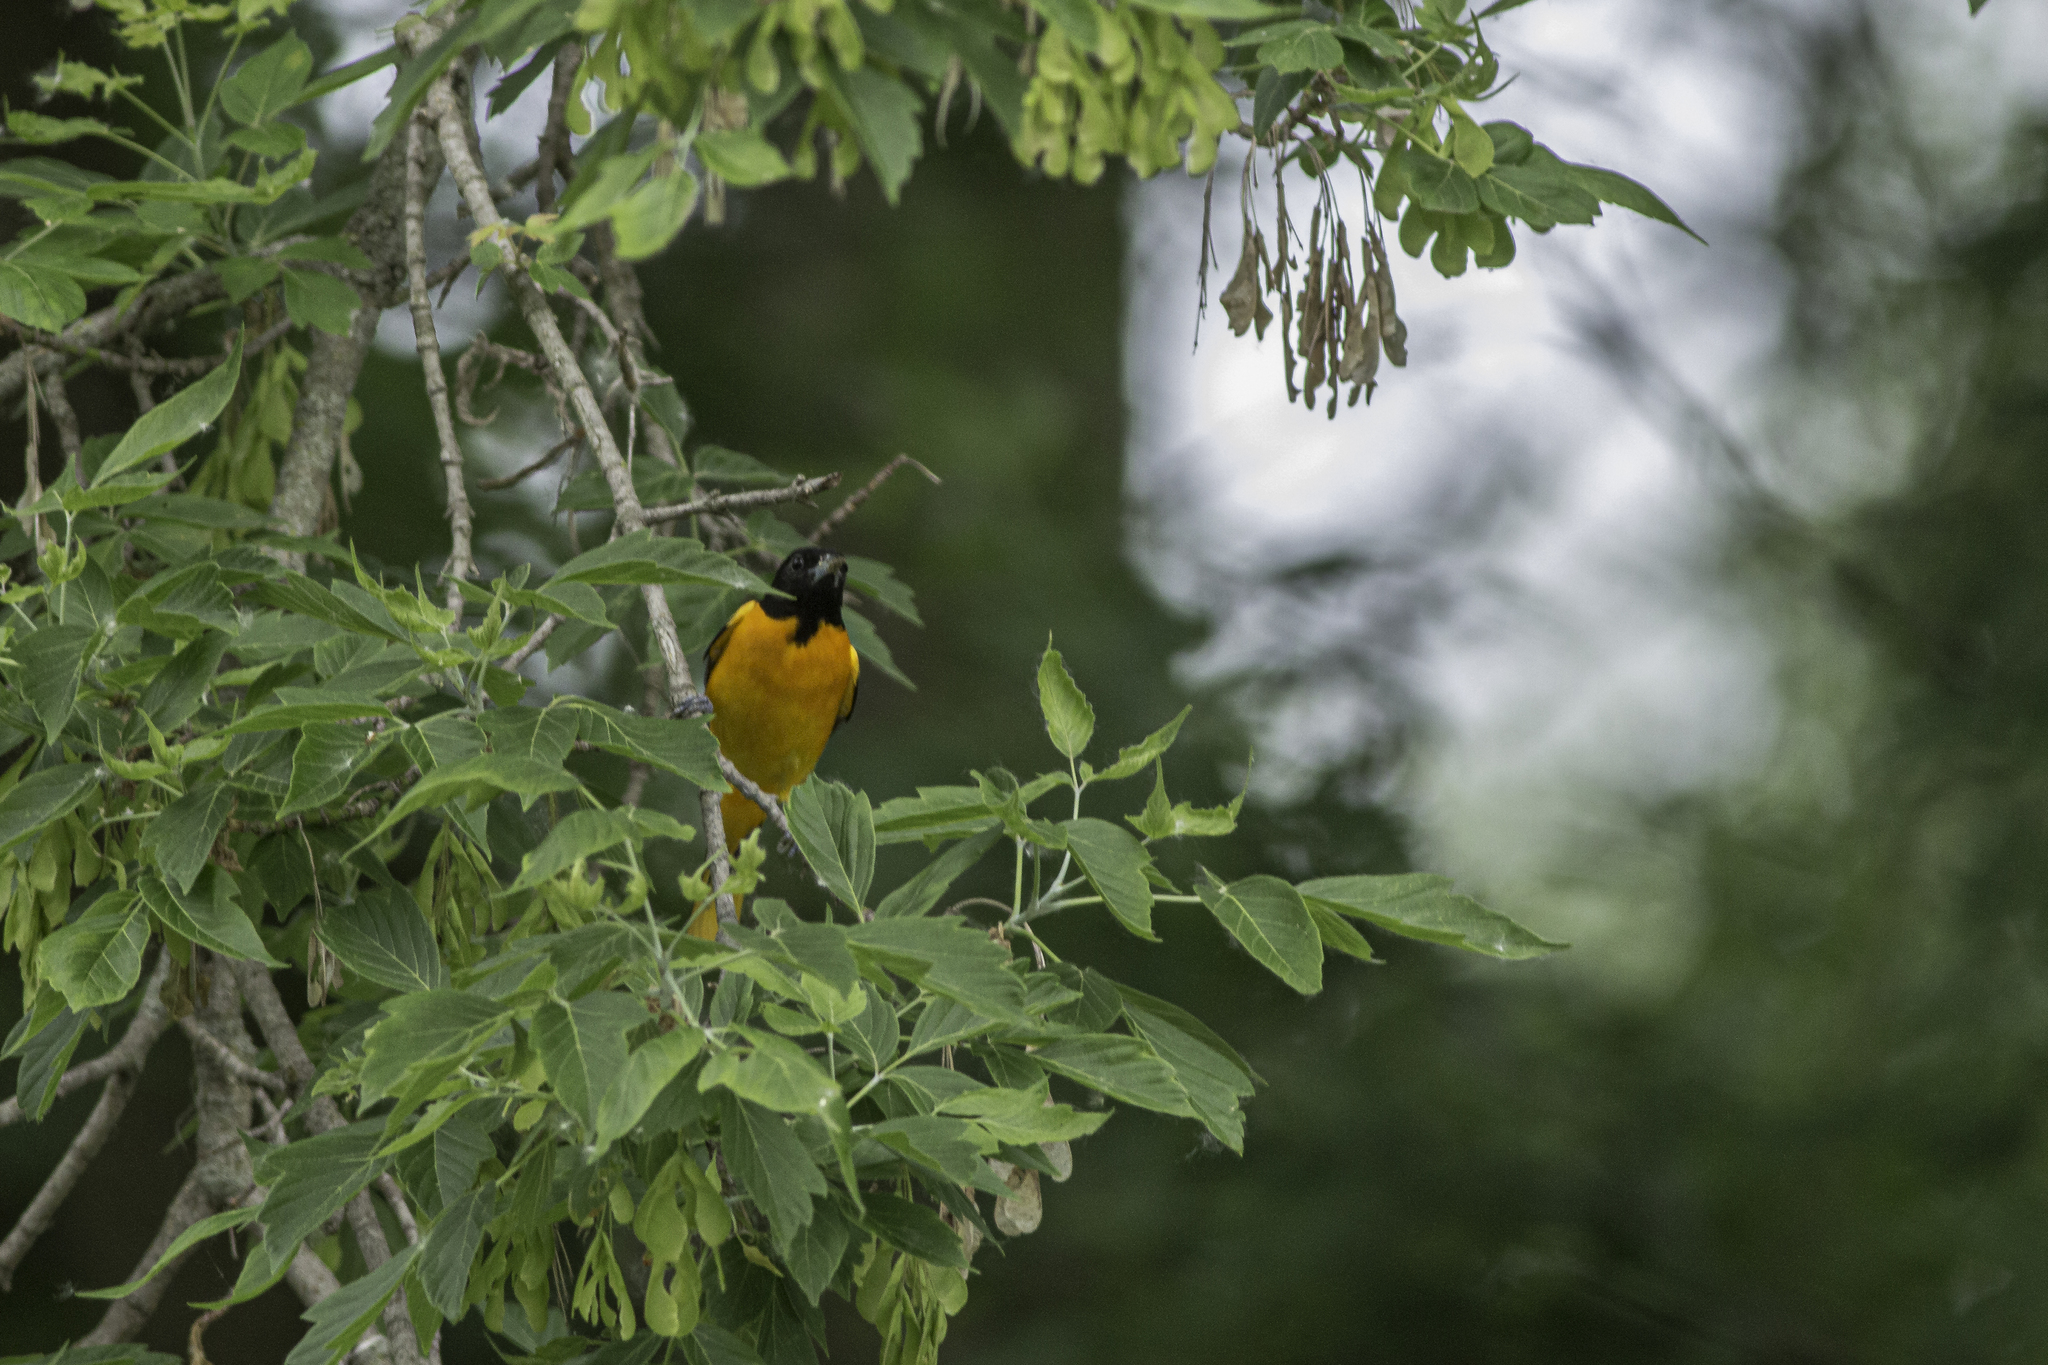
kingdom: Animalia
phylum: Chordata
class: Aves
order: Passeriformes
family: Icteridae
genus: Icterus
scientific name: Icterus galbula
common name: Baltimore oriole
